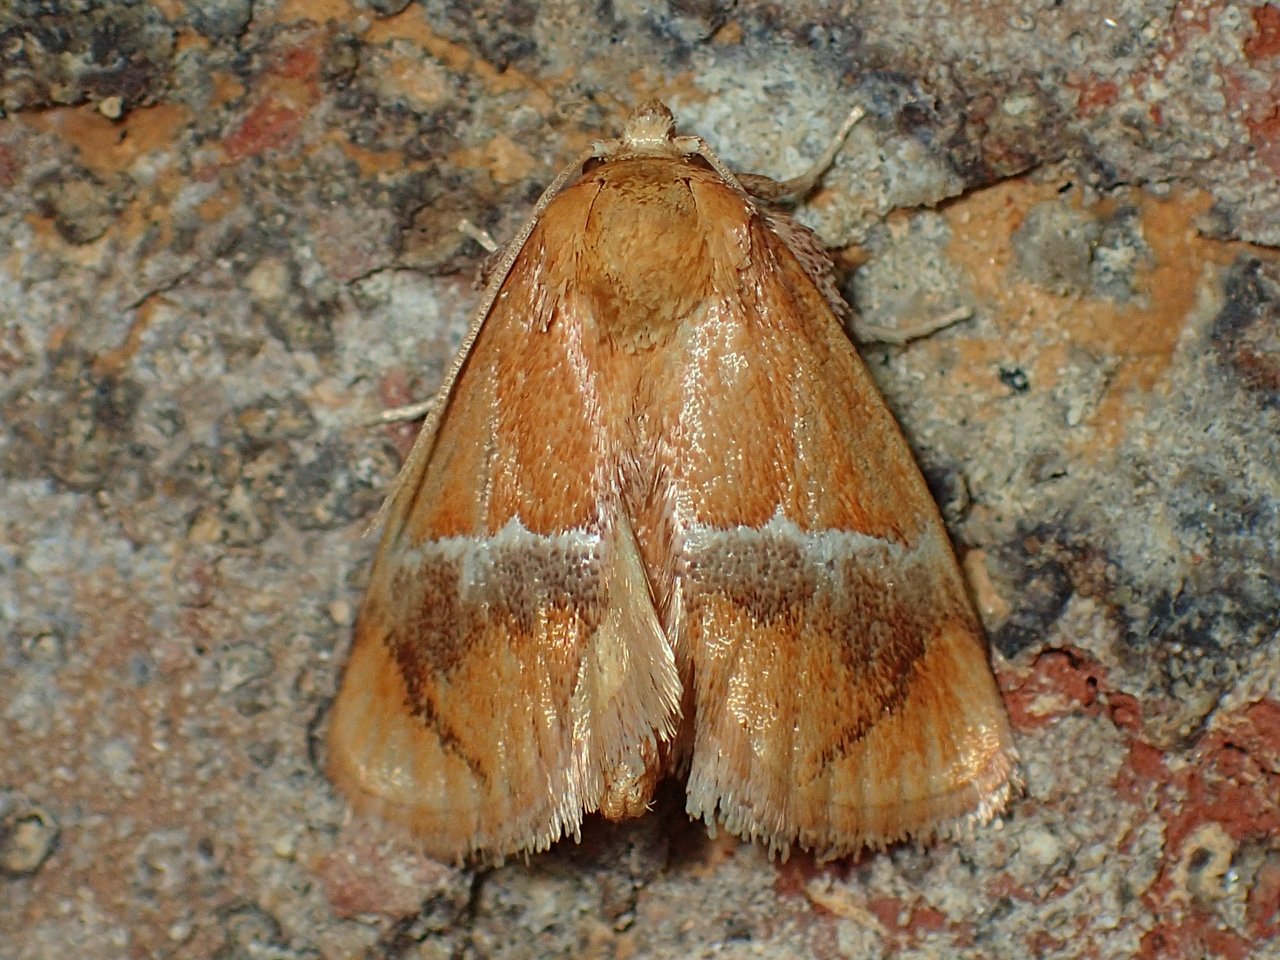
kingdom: Animalia
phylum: Arthropoda
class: Insecta
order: Lepidoptera
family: Limacodidae
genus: Lithacodes
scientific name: Lithacodes fasciola
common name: Yellow-shouldered slug moth
